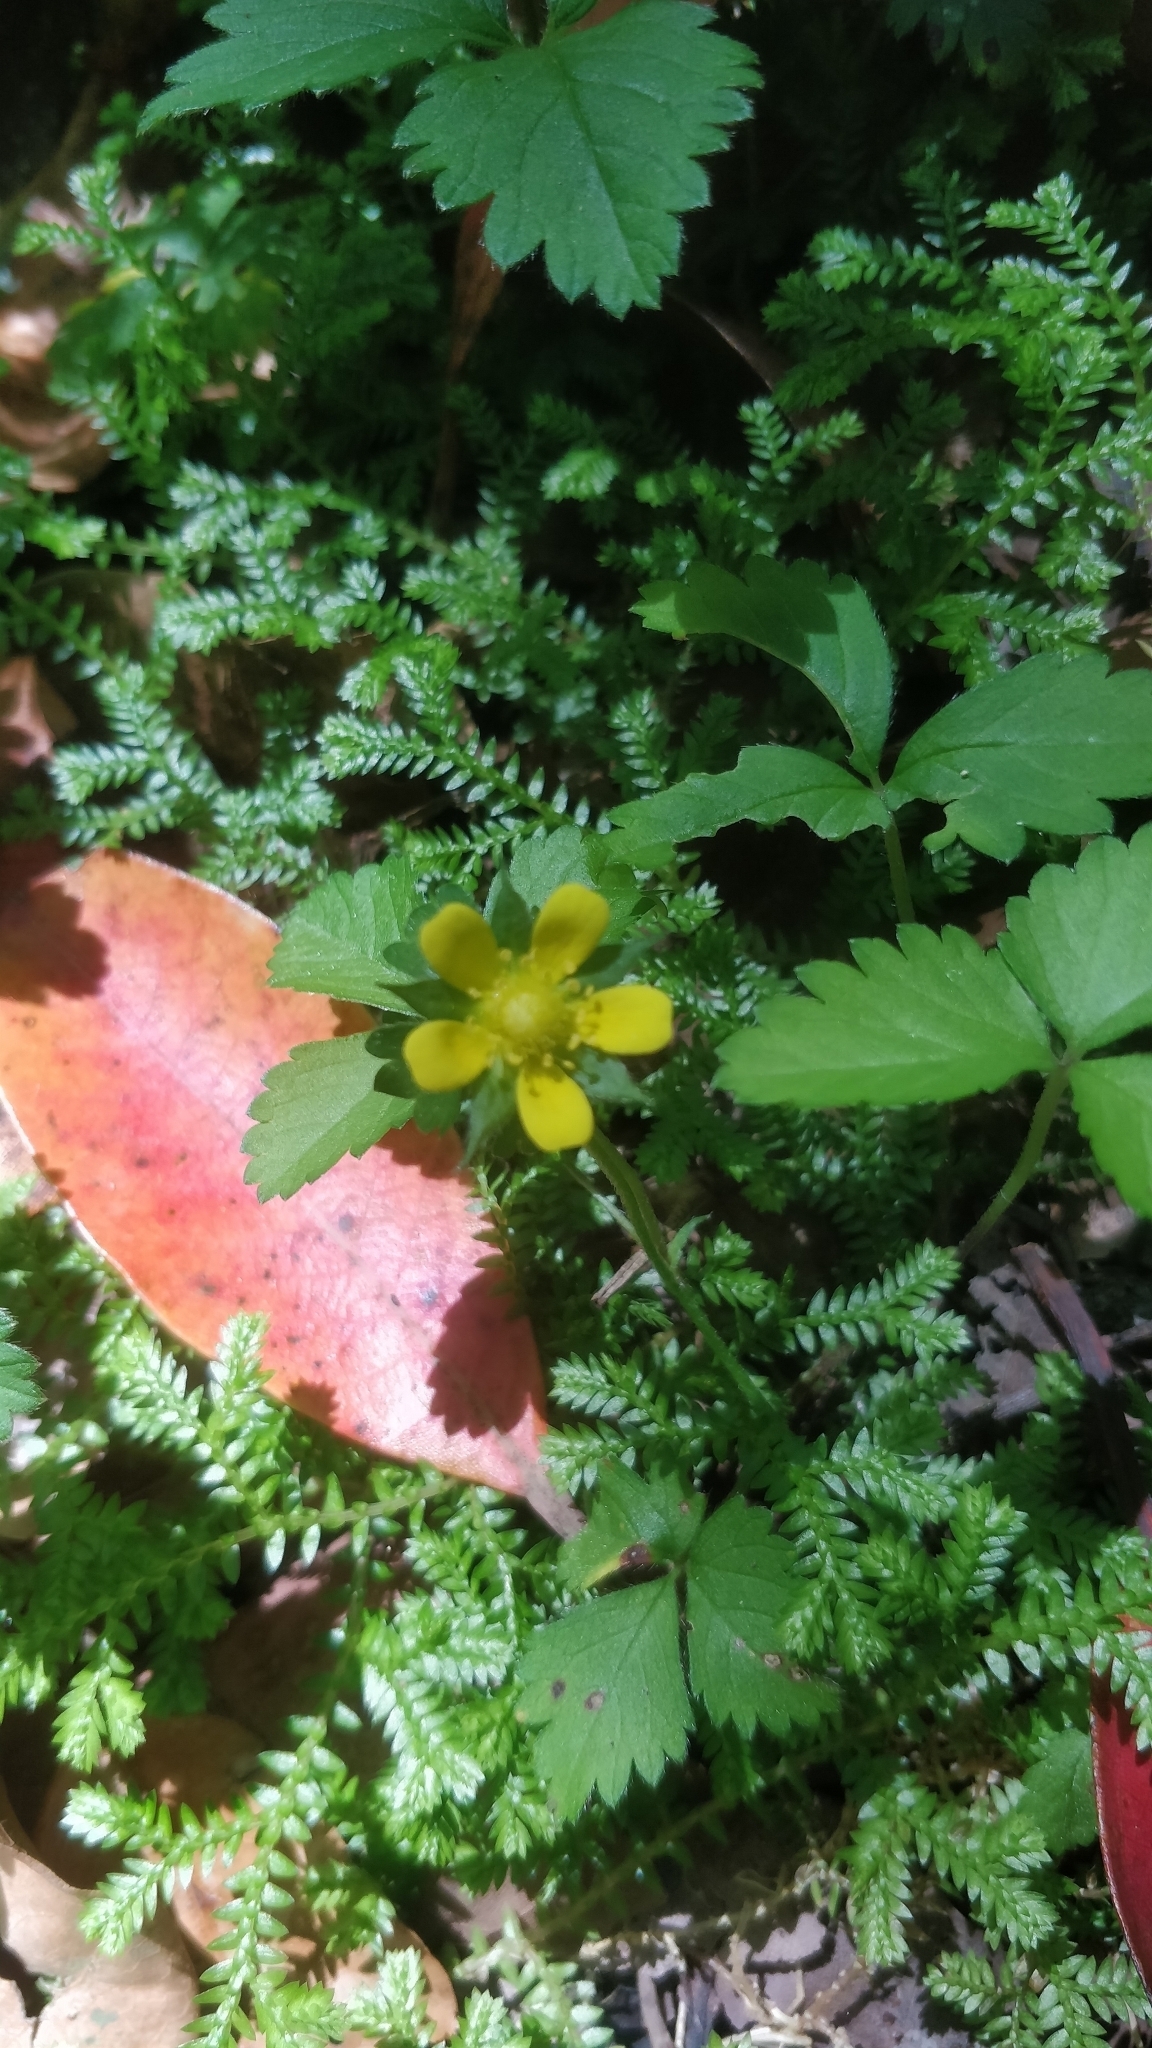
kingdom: Plantae
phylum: Tracheophyta
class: Magnoliopsida
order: Rosales
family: Rosaceae
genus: Potentilla
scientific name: Potentilla indica
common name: Yellow-flowered strawberry
